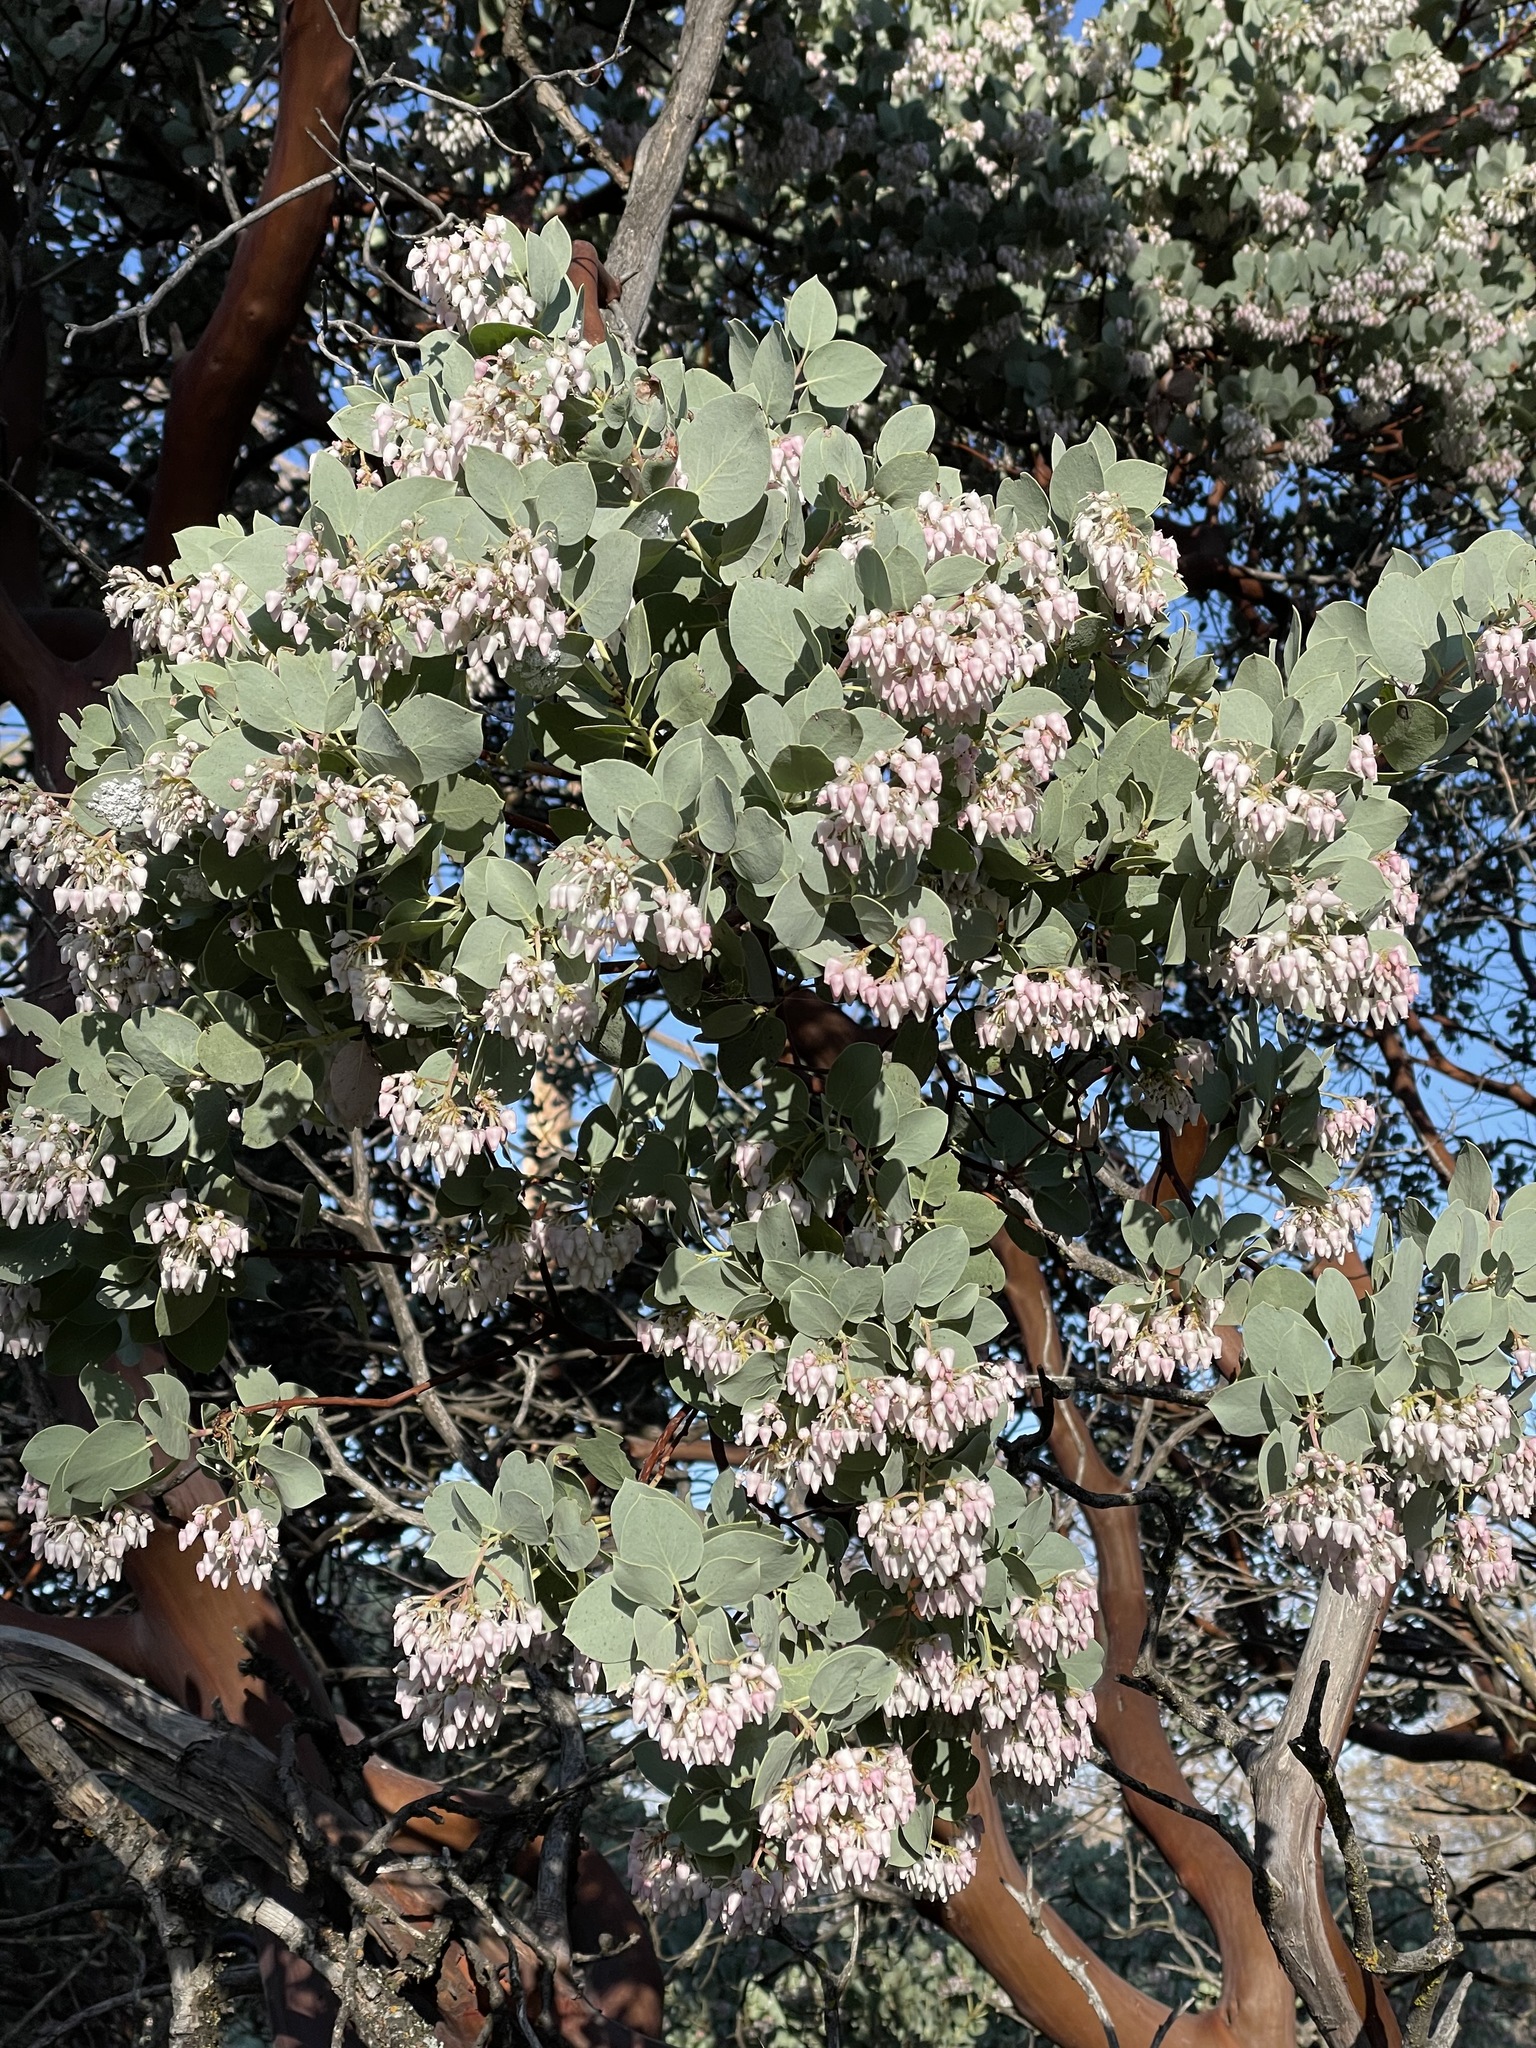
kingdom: Plantae
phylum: Tracheophyta
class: Magnoliopsida
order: Ericales
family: Ericaceae
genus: Arctostaphylos
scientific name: Arctostaphylos viscida
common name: White-leaf manzanita
